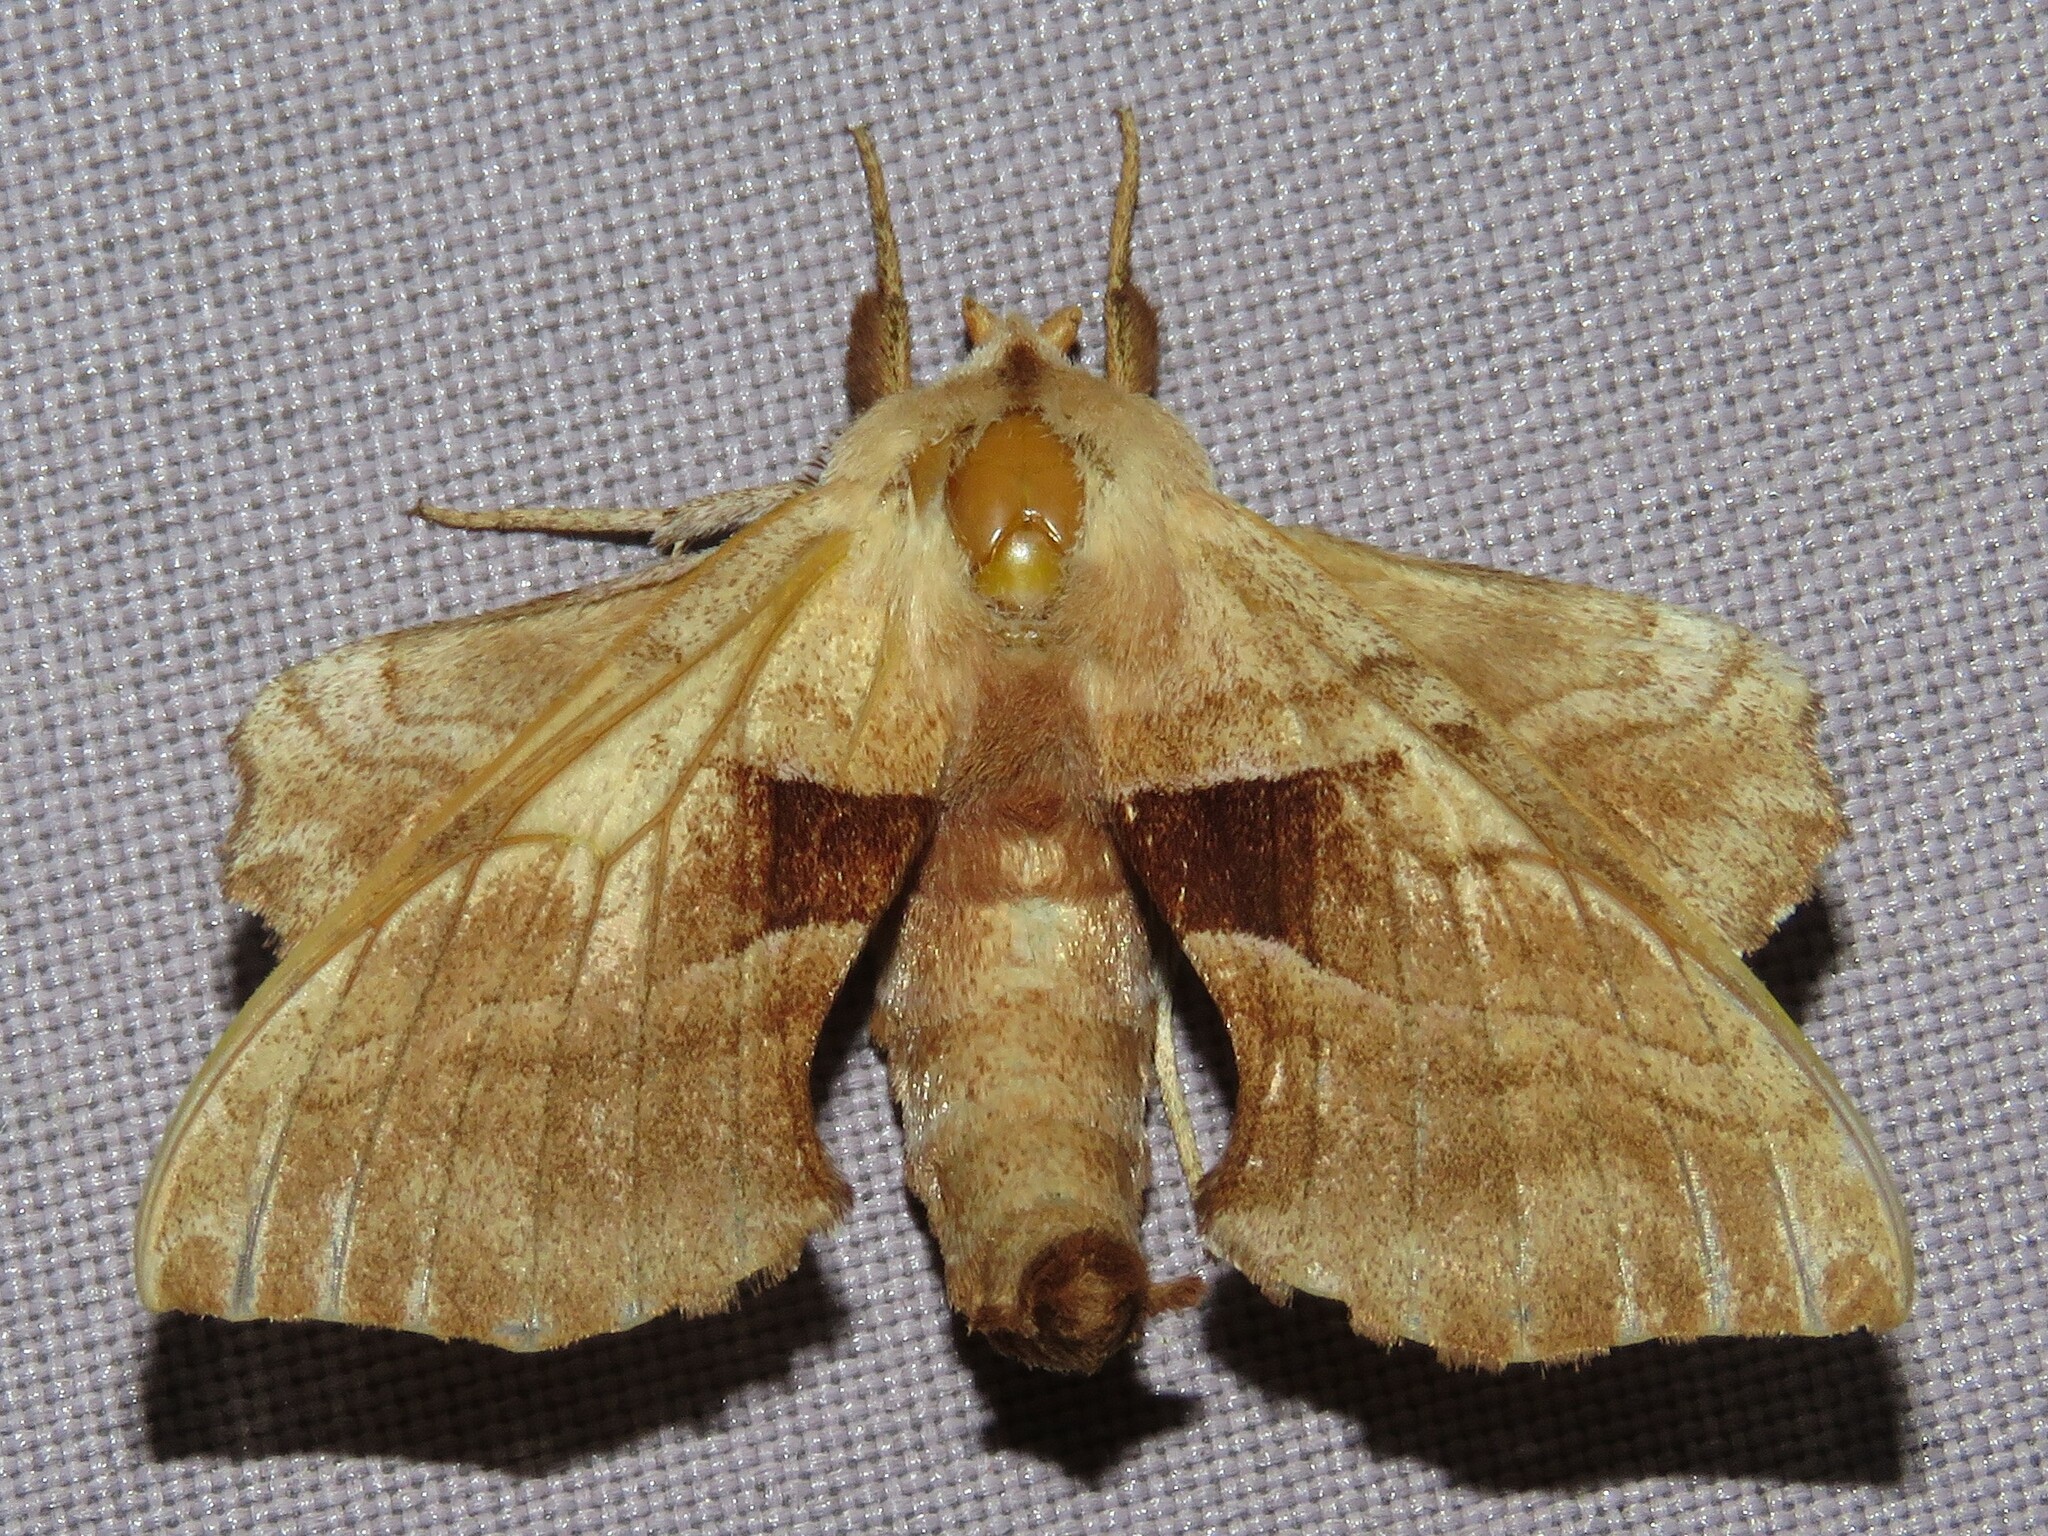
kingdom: Animalia
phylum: Arthropoda
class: Insecta
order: Lepidoptera
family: Sphingidae
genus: Amorpha
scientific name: Amorpha juglandis
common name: Walnut sphinx
